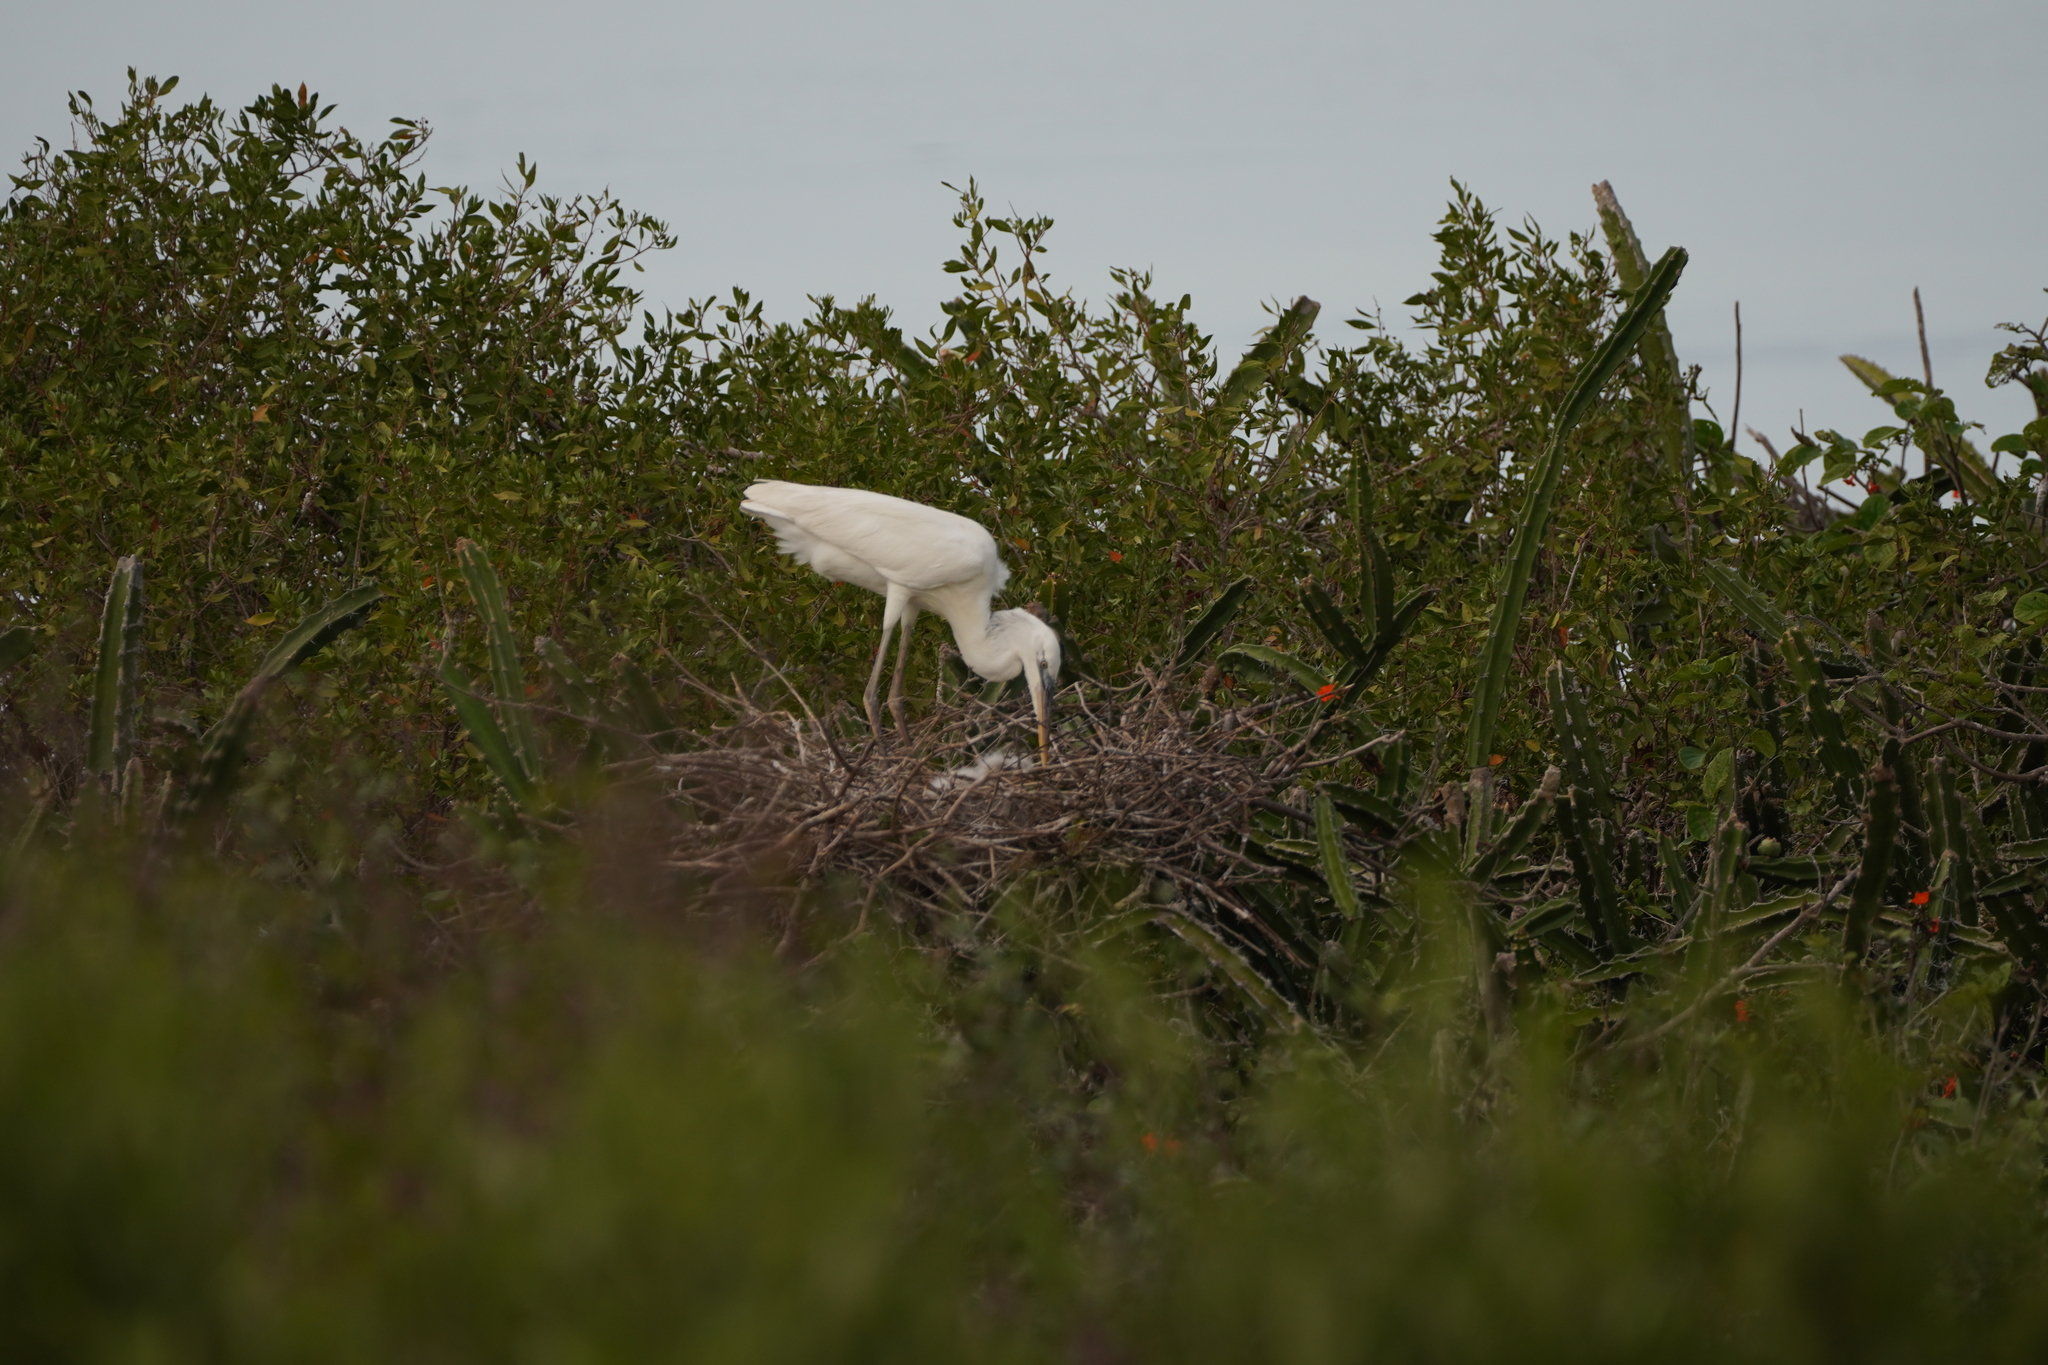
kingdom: Animalia
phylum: Chordata
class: Aves
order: Pelecaniformes
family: Ardeidae
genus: Ardea
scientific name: Ardea herodias
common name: Great blue heron
